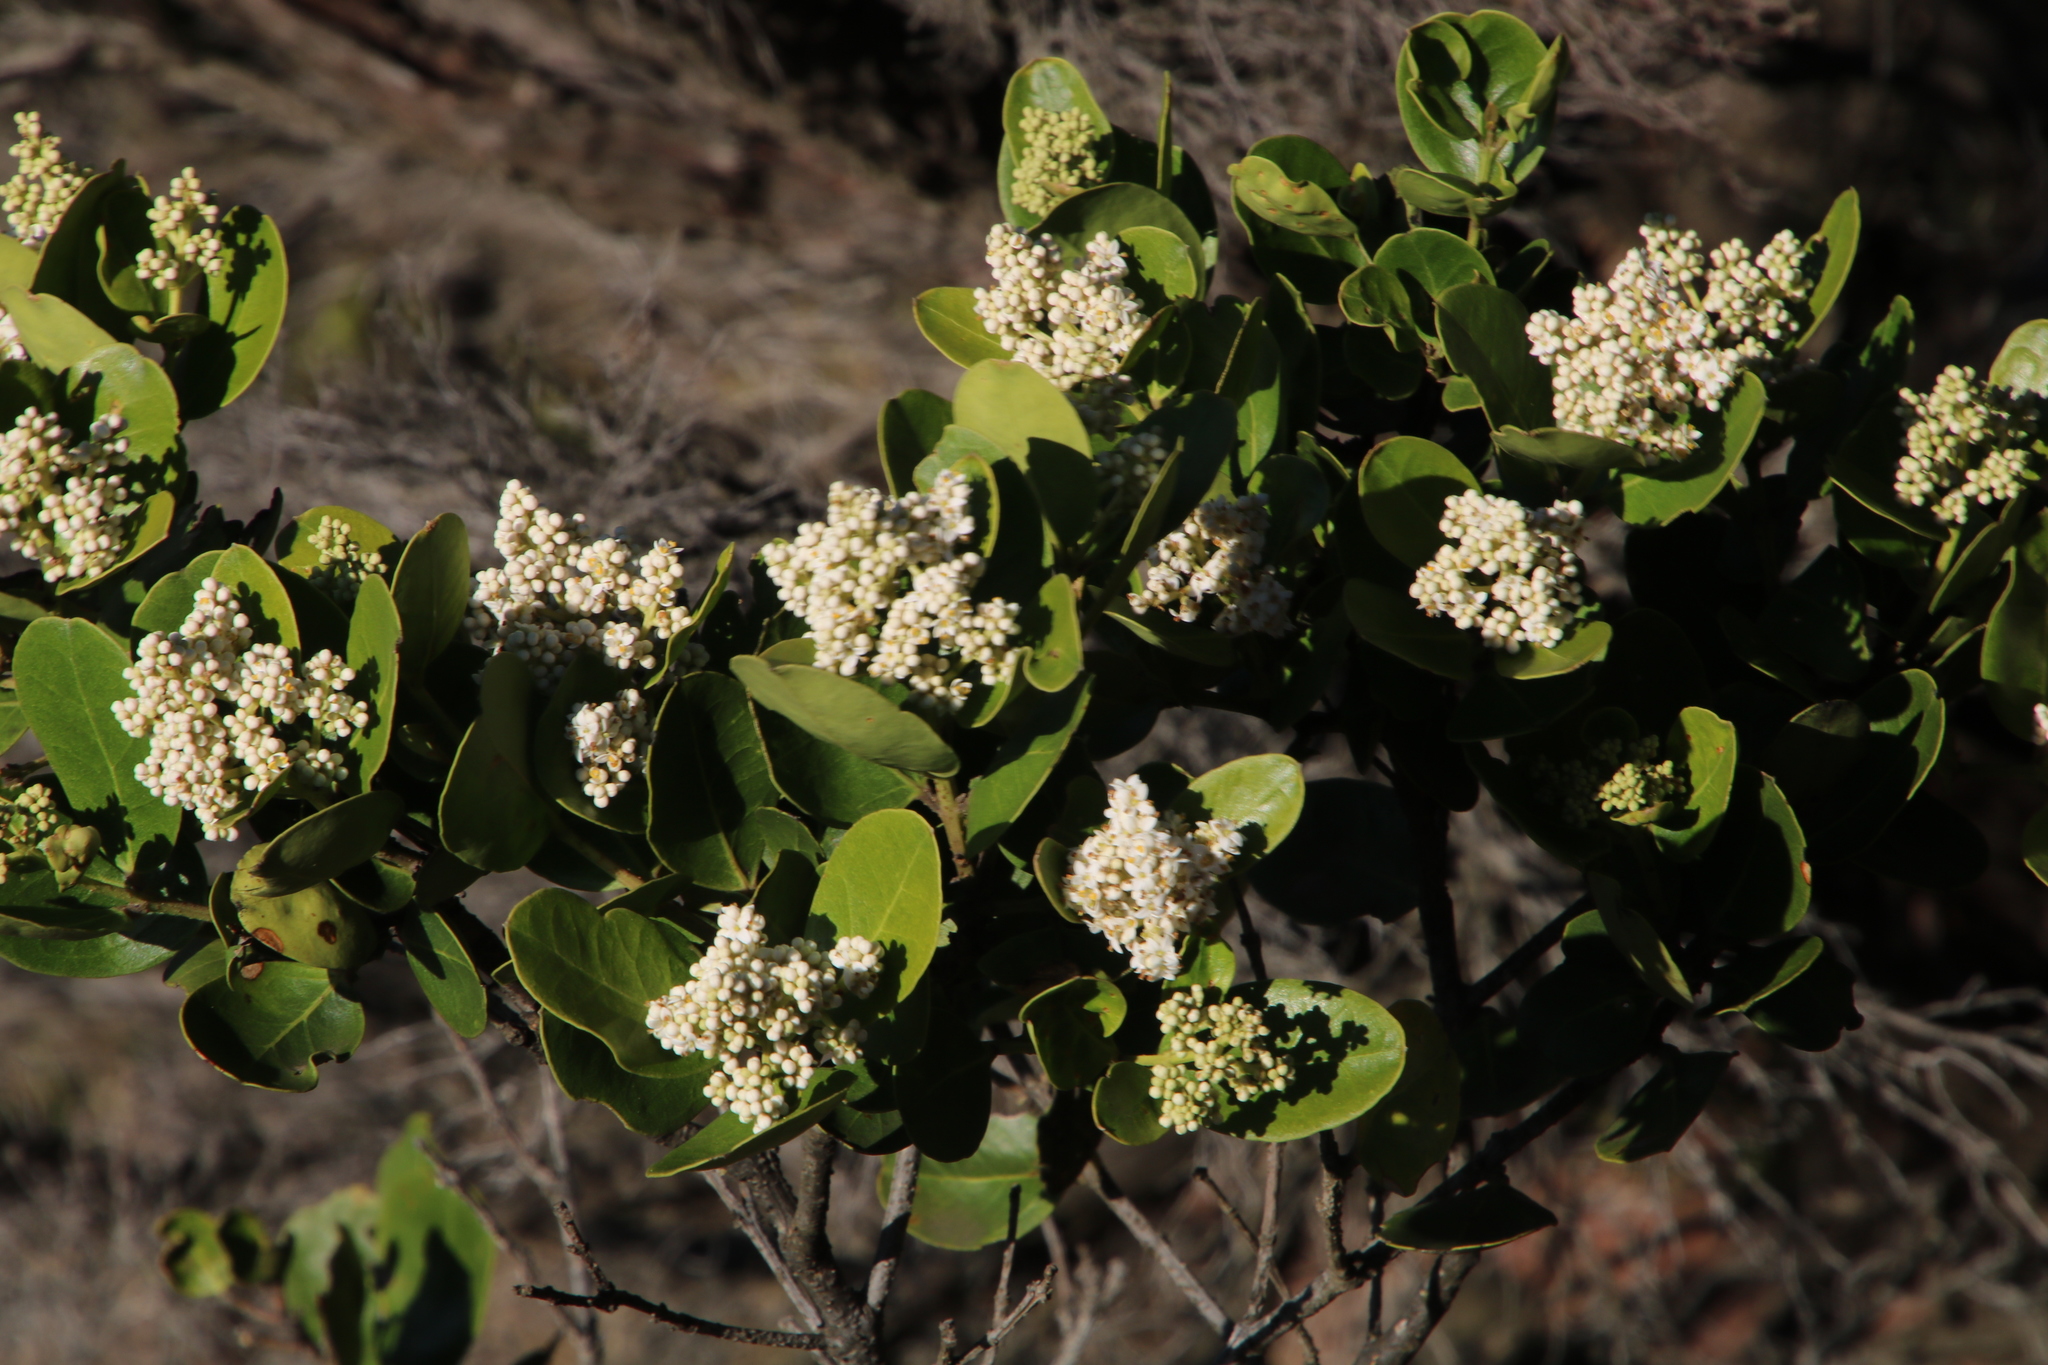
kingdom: Plantae
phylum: Tracheophyta
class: Magnoliopsida
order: Lamiales
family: Oleaceae
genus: Olea
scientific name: Olea capensis
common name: Black ironwood
